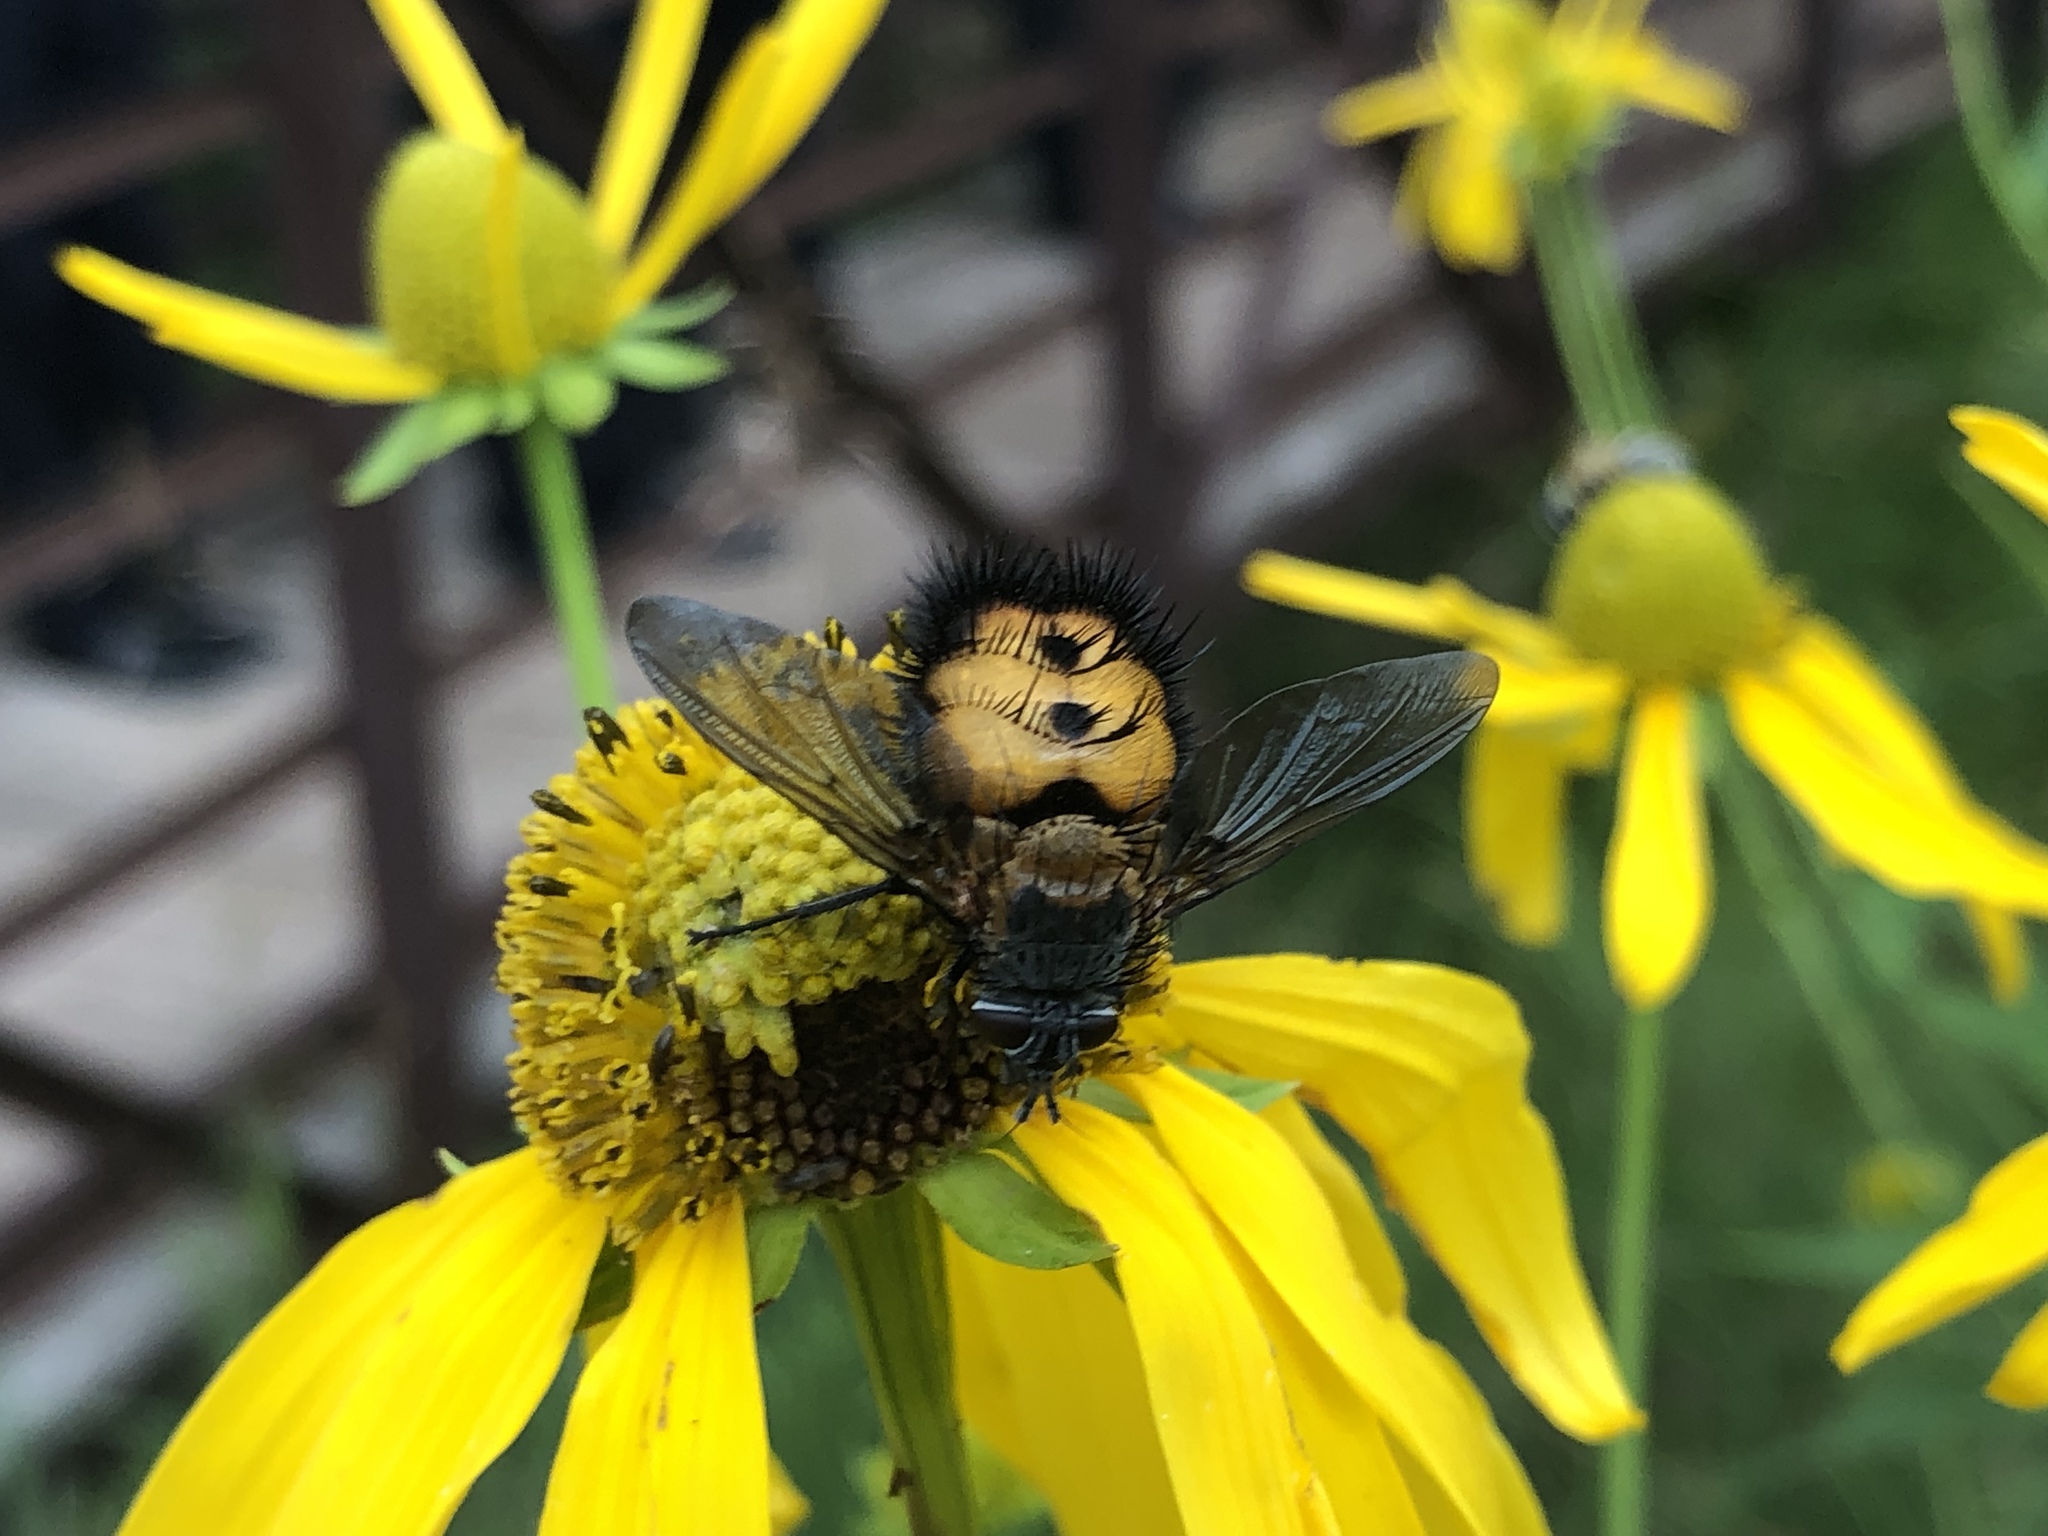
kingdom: Animalia
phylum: Arthropoda
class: Insecta
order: Diptera
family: Tachinidae
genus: Paradejeania
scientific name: Paradejeania rutilioides
